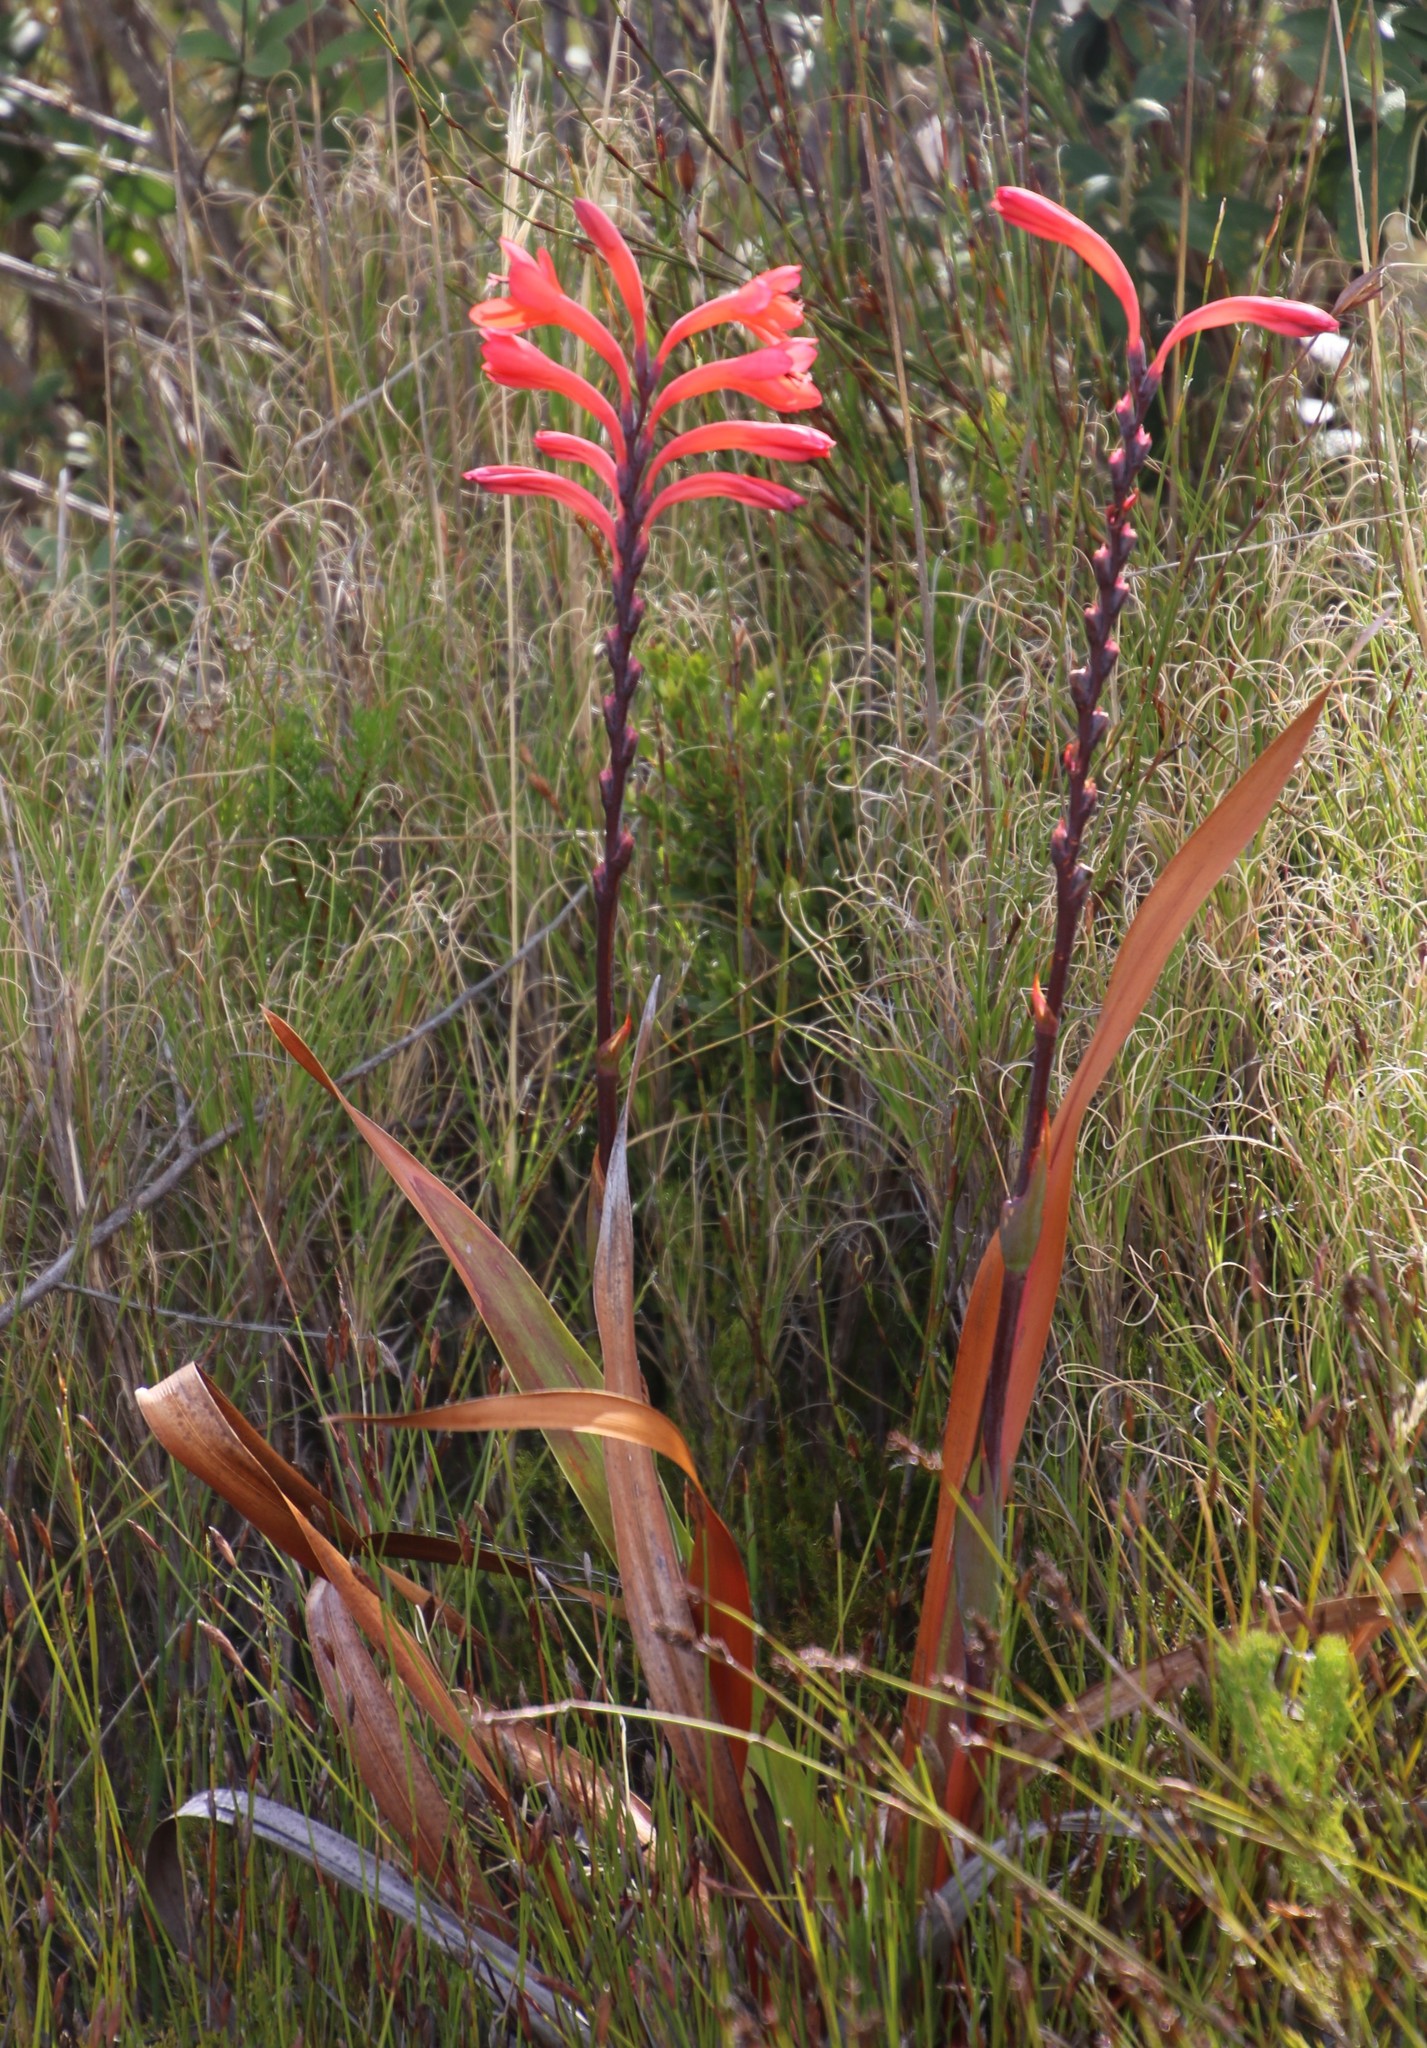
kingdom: Plantae
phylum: Tracheophyta
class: Liliopsida
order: Asparagales
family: Iridaceae
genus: Watsonia
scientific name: Watsonia tabularis
